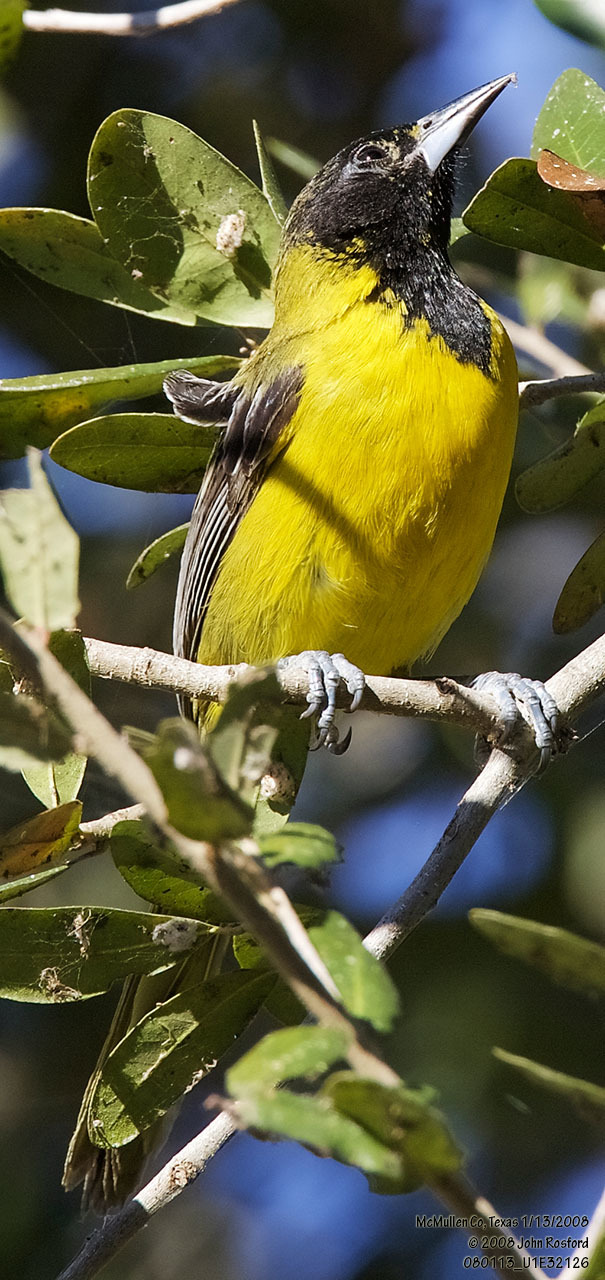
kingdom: Animalia
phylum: Chordata
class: Aves
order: Passeriformes
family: Icteridae
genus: Icterus
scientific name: Icterus graduacauda
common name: Audubon's oriole
